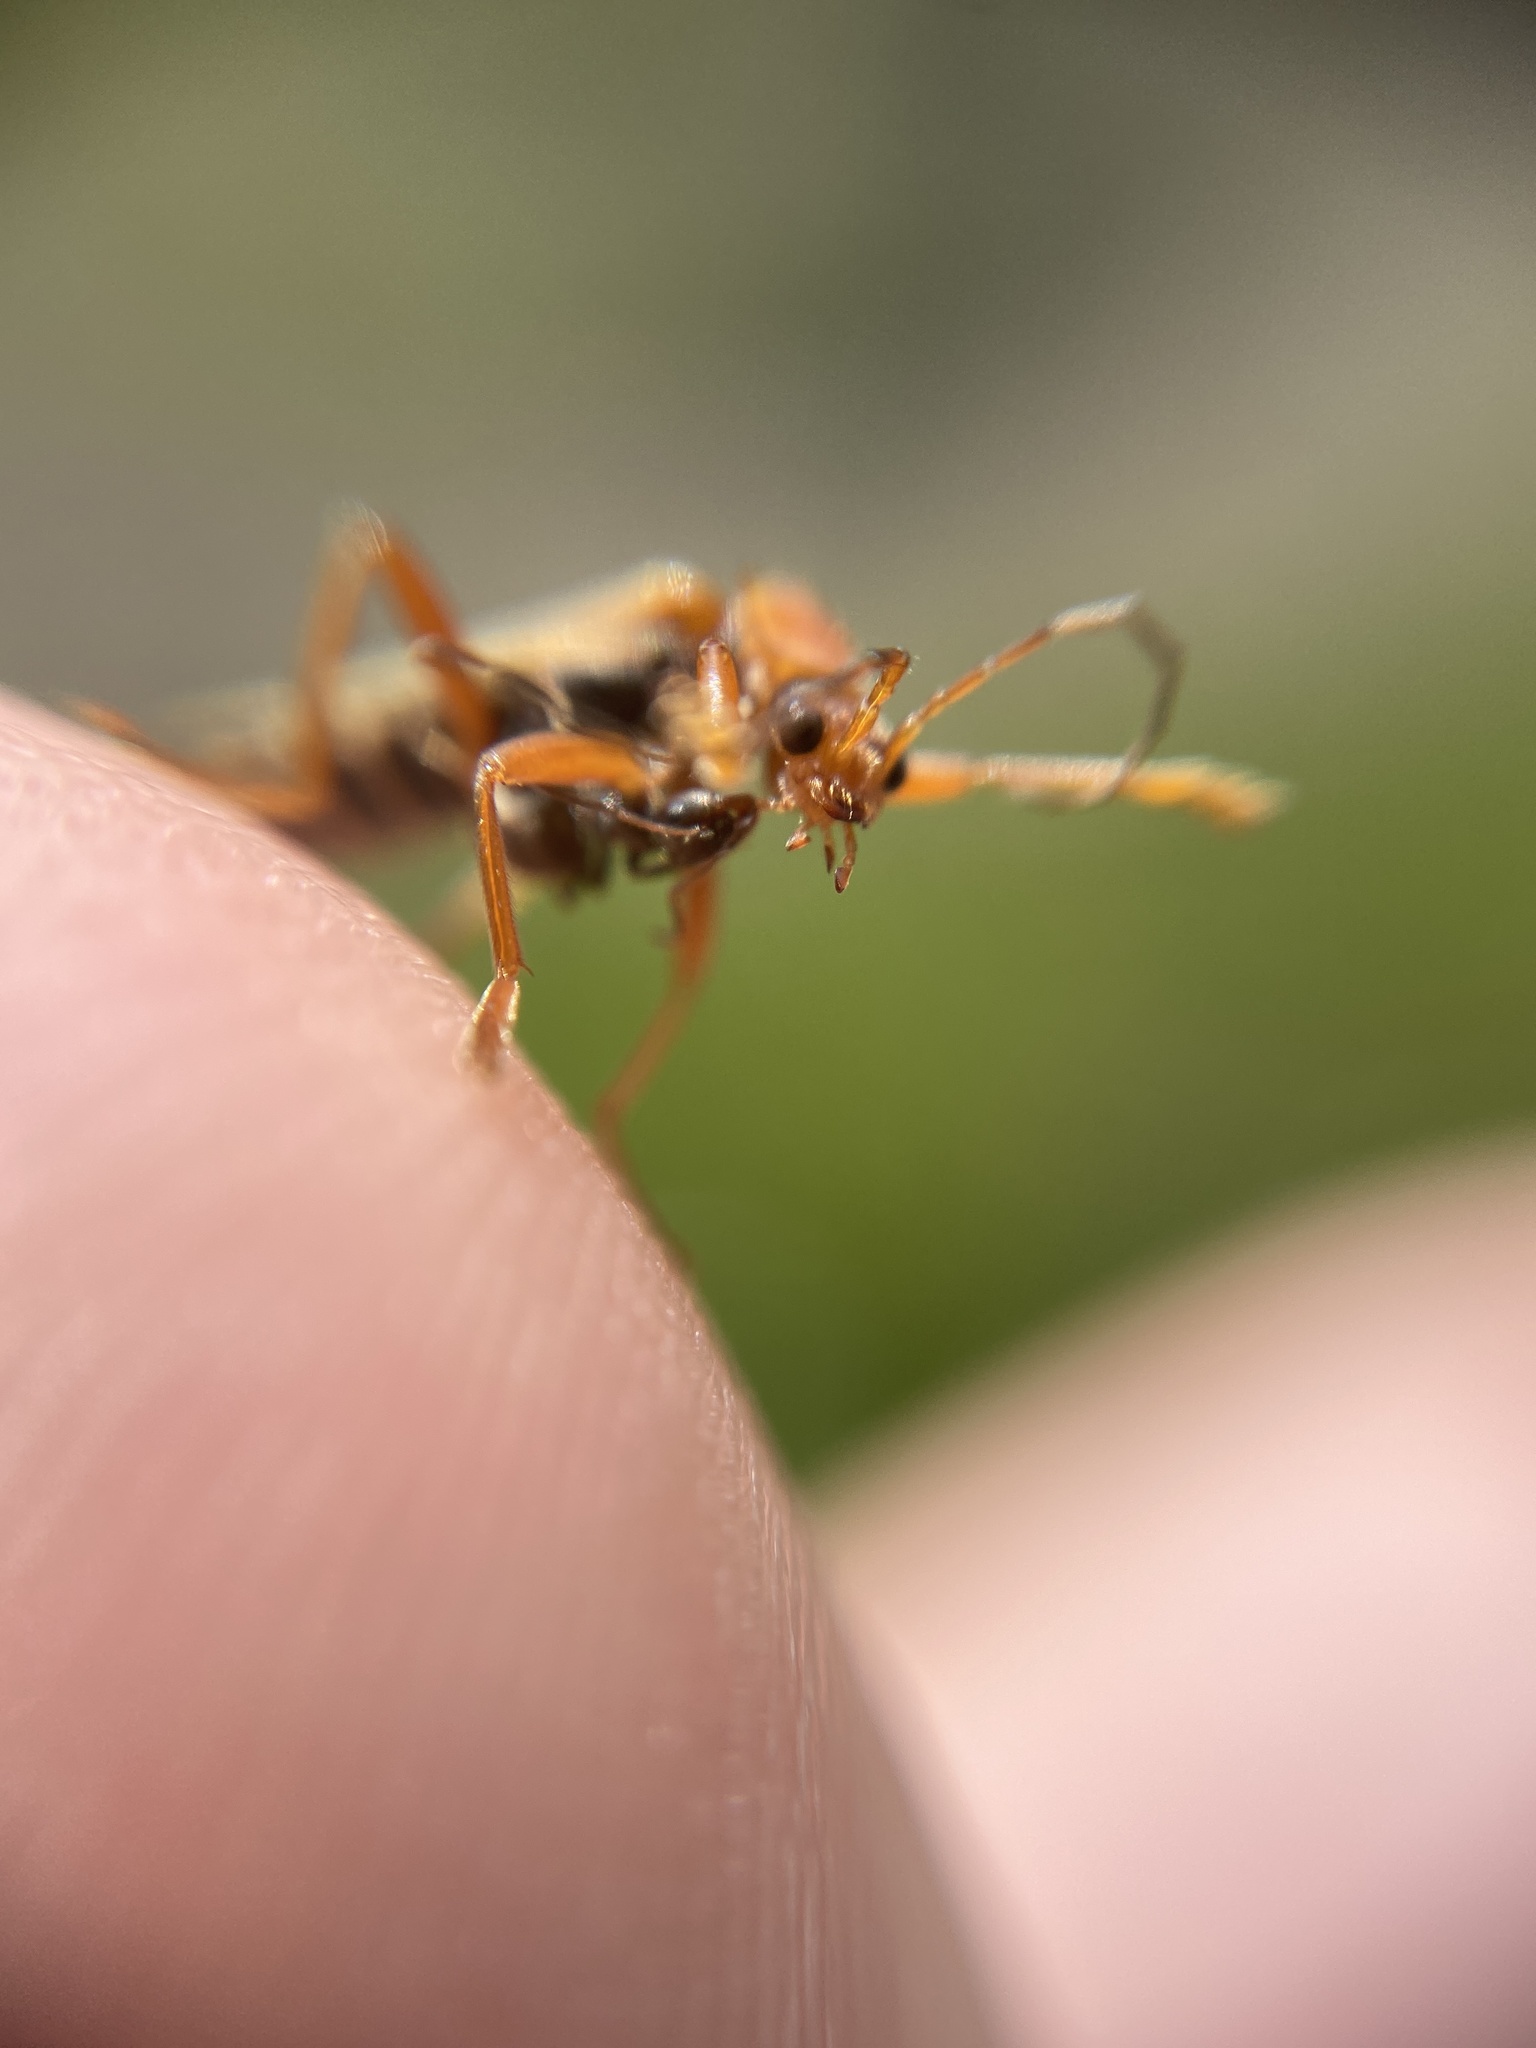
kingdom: Animalia
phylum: Arthropoda
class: Insecta
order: Coleoptera
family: Cantharidae
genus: Cantharis
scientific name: Cantharis figurata
